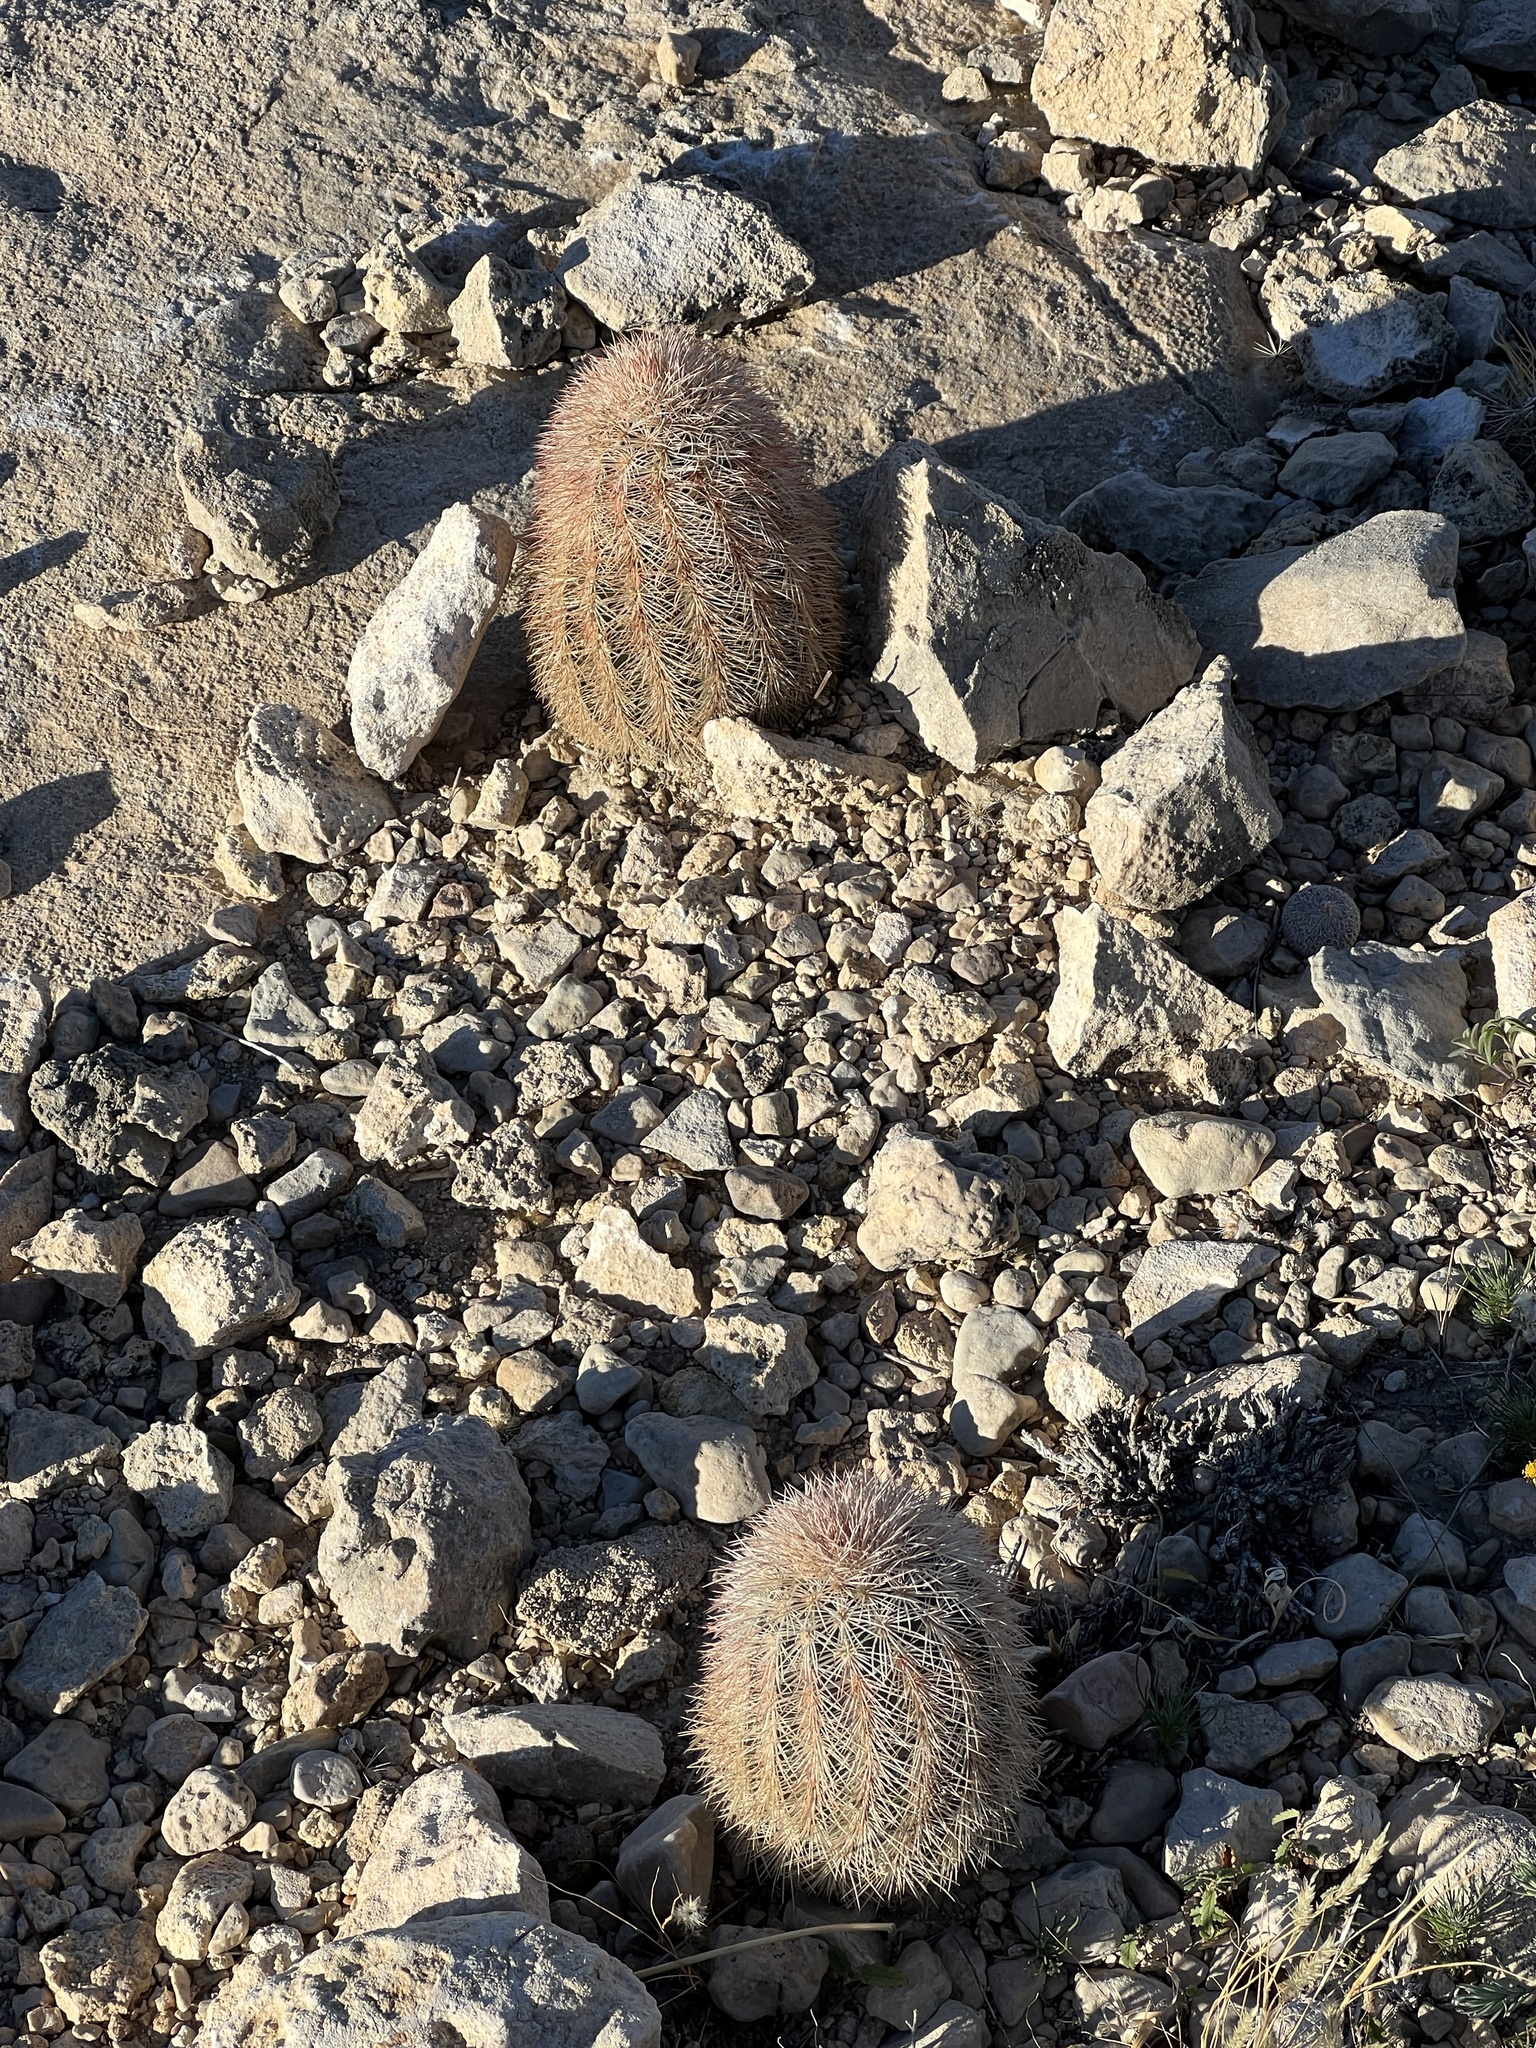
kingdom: Plantae
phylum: Tracheophyta
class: Magnoliopsida
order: Caryophyllales
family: Cactaceae
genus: Echinocereus
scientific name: Echinocereus dasyacanthus
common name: Spiny hedgehog cactus
